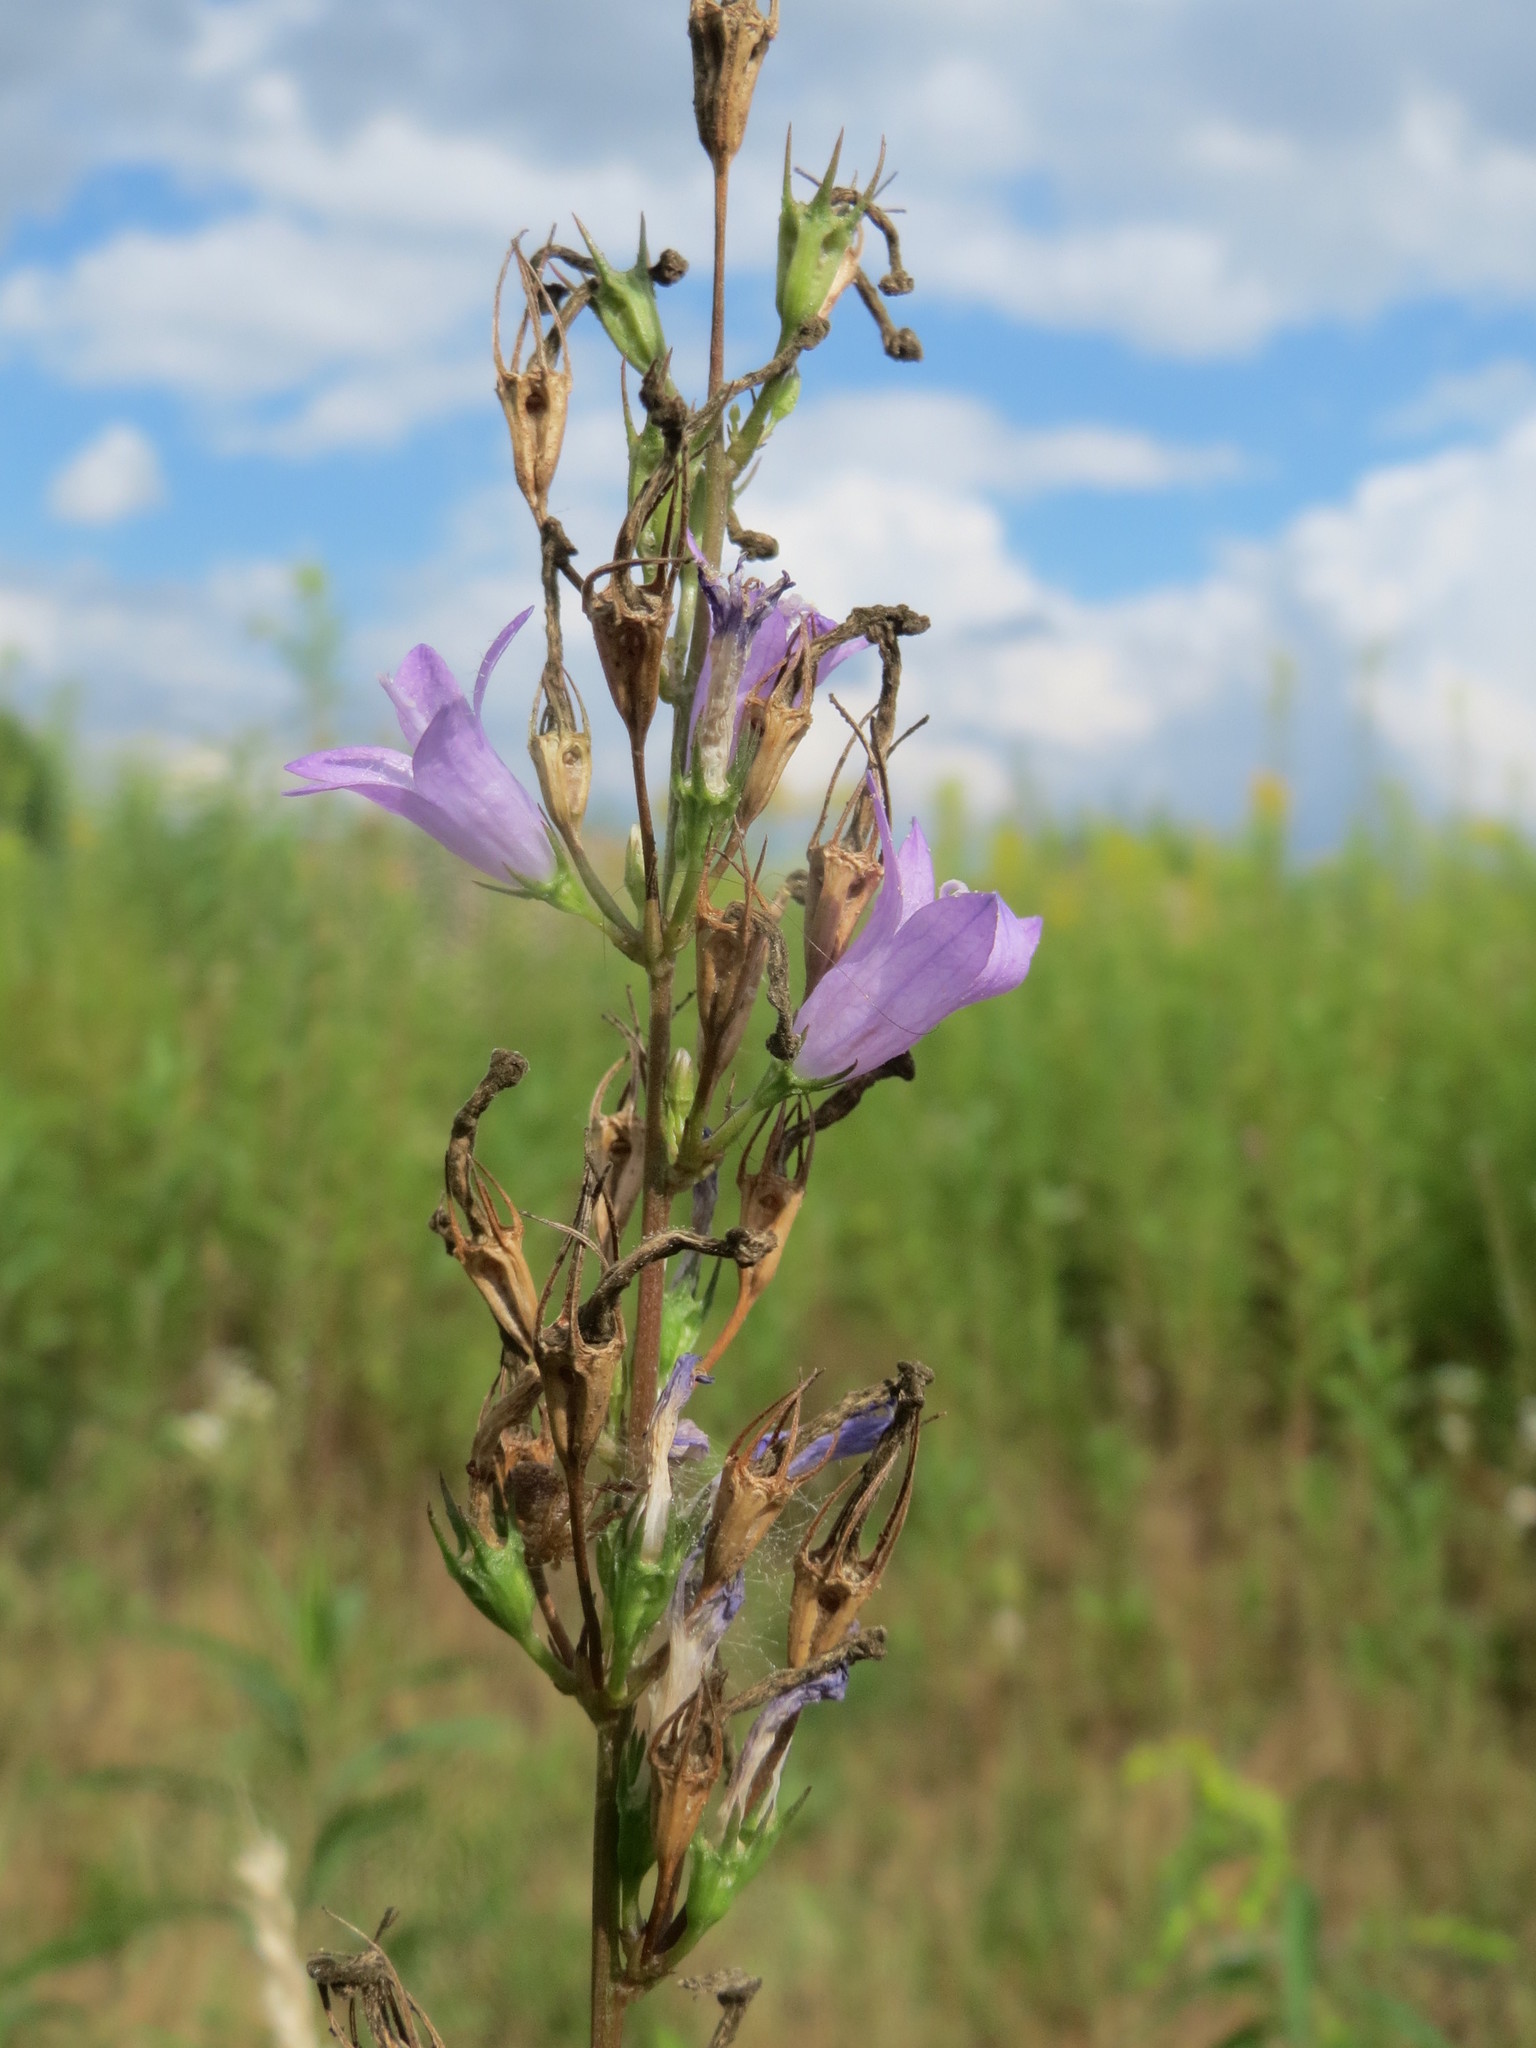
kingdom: Plantae
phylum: Tracheophyta
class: Magnoliopsida
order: Asterales
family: Campanulaceae
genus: Campanula
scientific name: Campanula rapunculus
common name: Rampion bellflower
